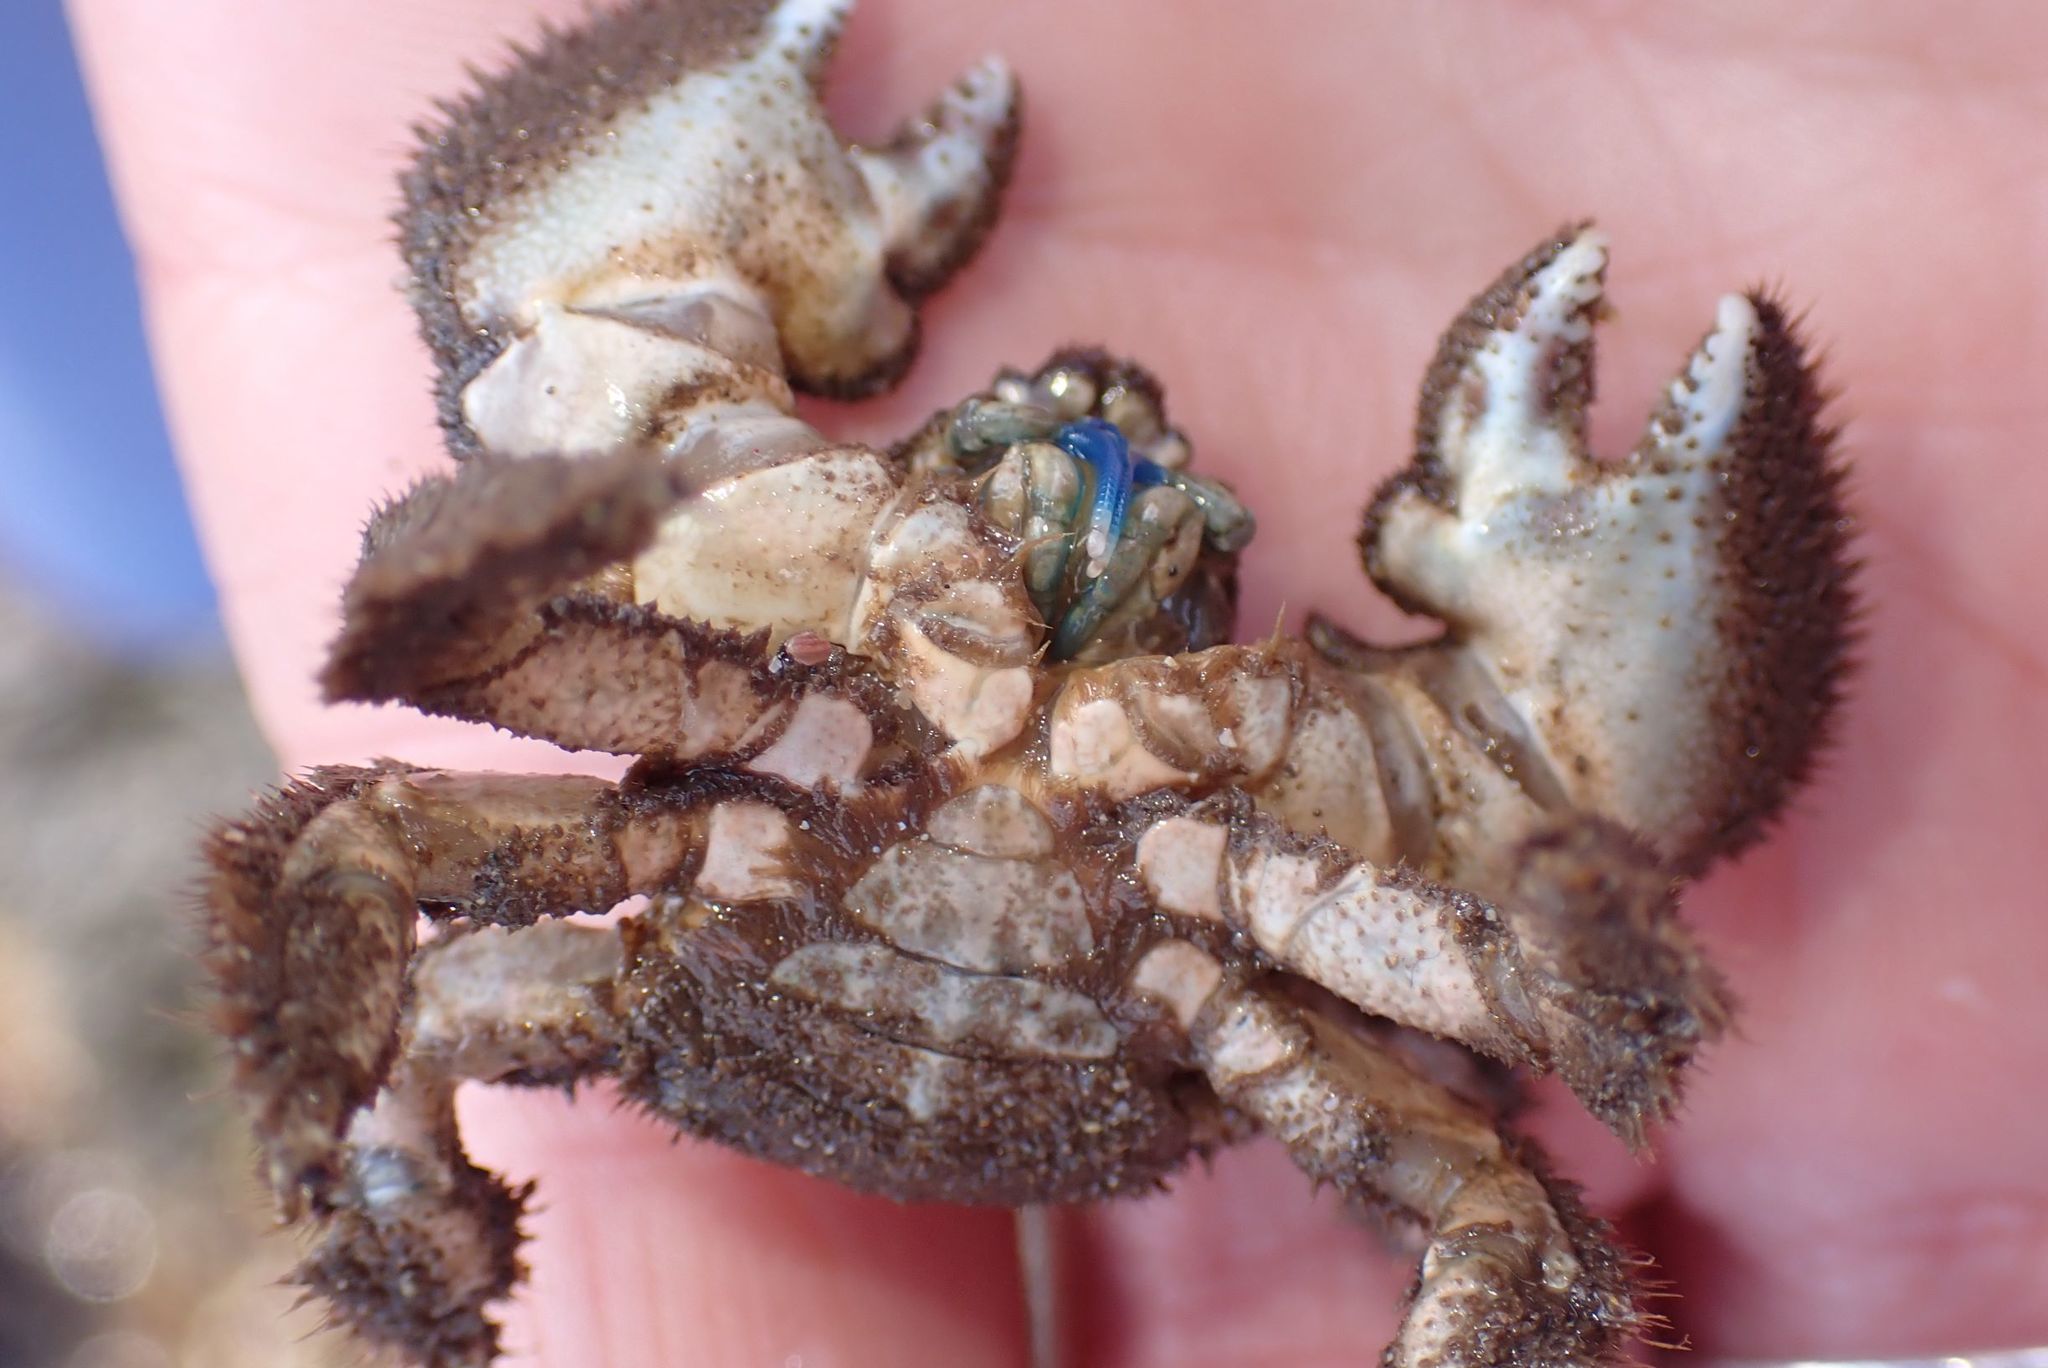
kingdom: Animalia
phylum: Arthropoda
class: Malacostraca
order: Decapoda
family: Lomisidae
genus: Lomis
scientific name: Lomis hirta
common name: Hairy stone crab
